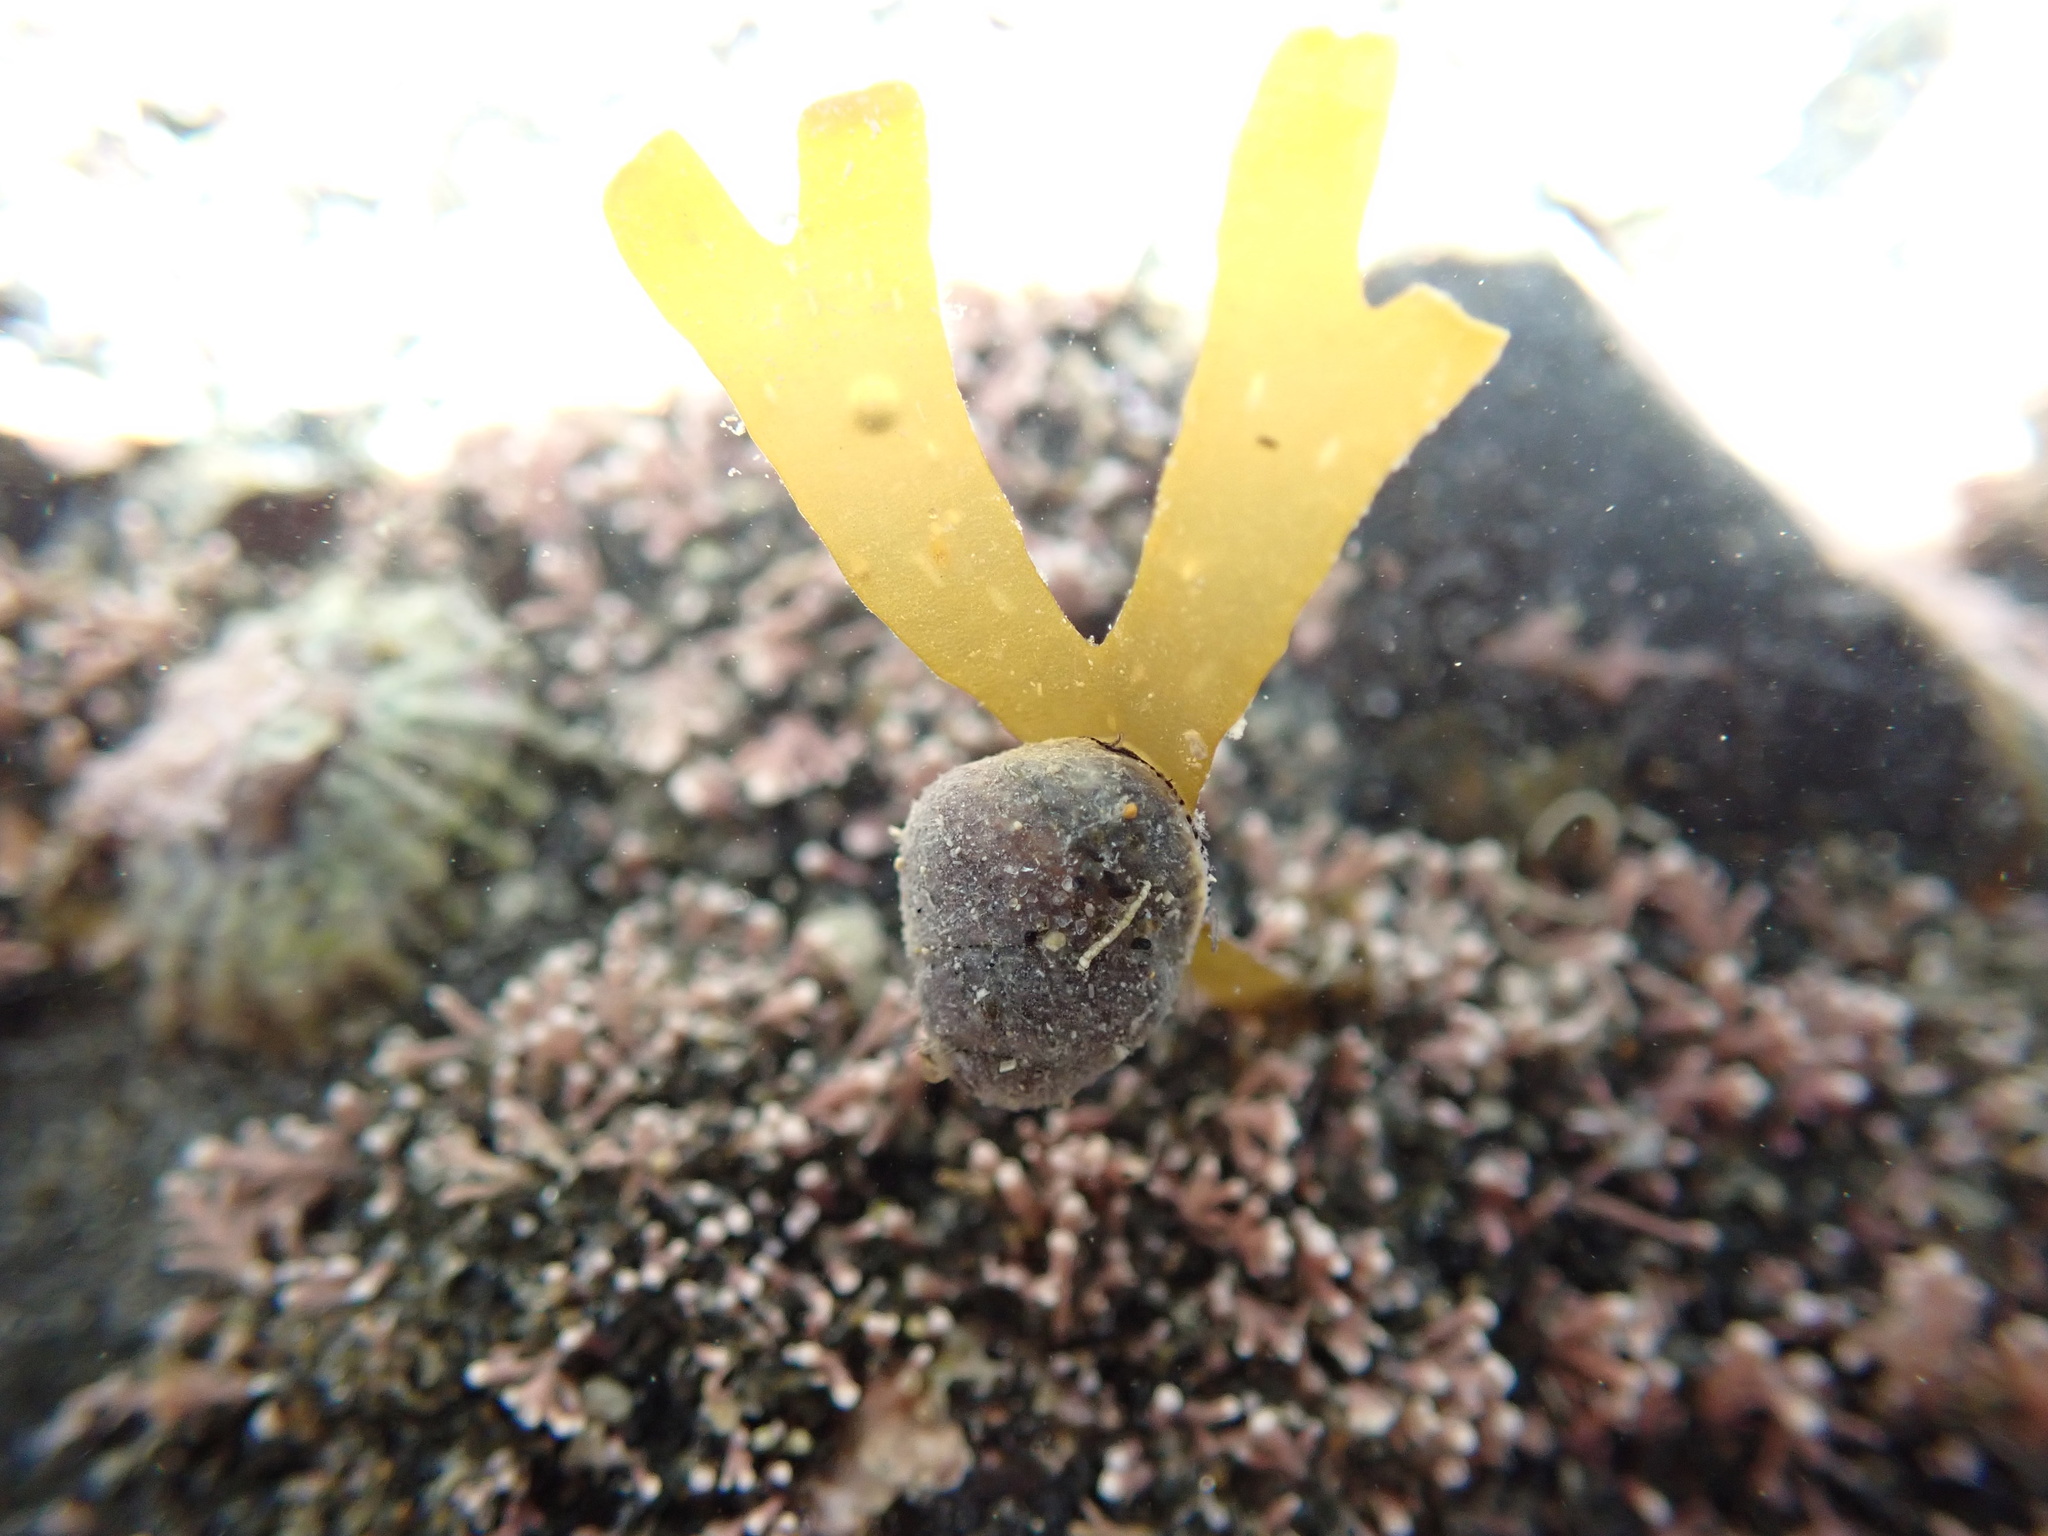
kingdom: Animalia
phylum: Mollusca
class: Gastropoda
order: Trochida
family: Trochidae
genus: Micrelenchus
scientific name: Micrelenchus tessellatus
